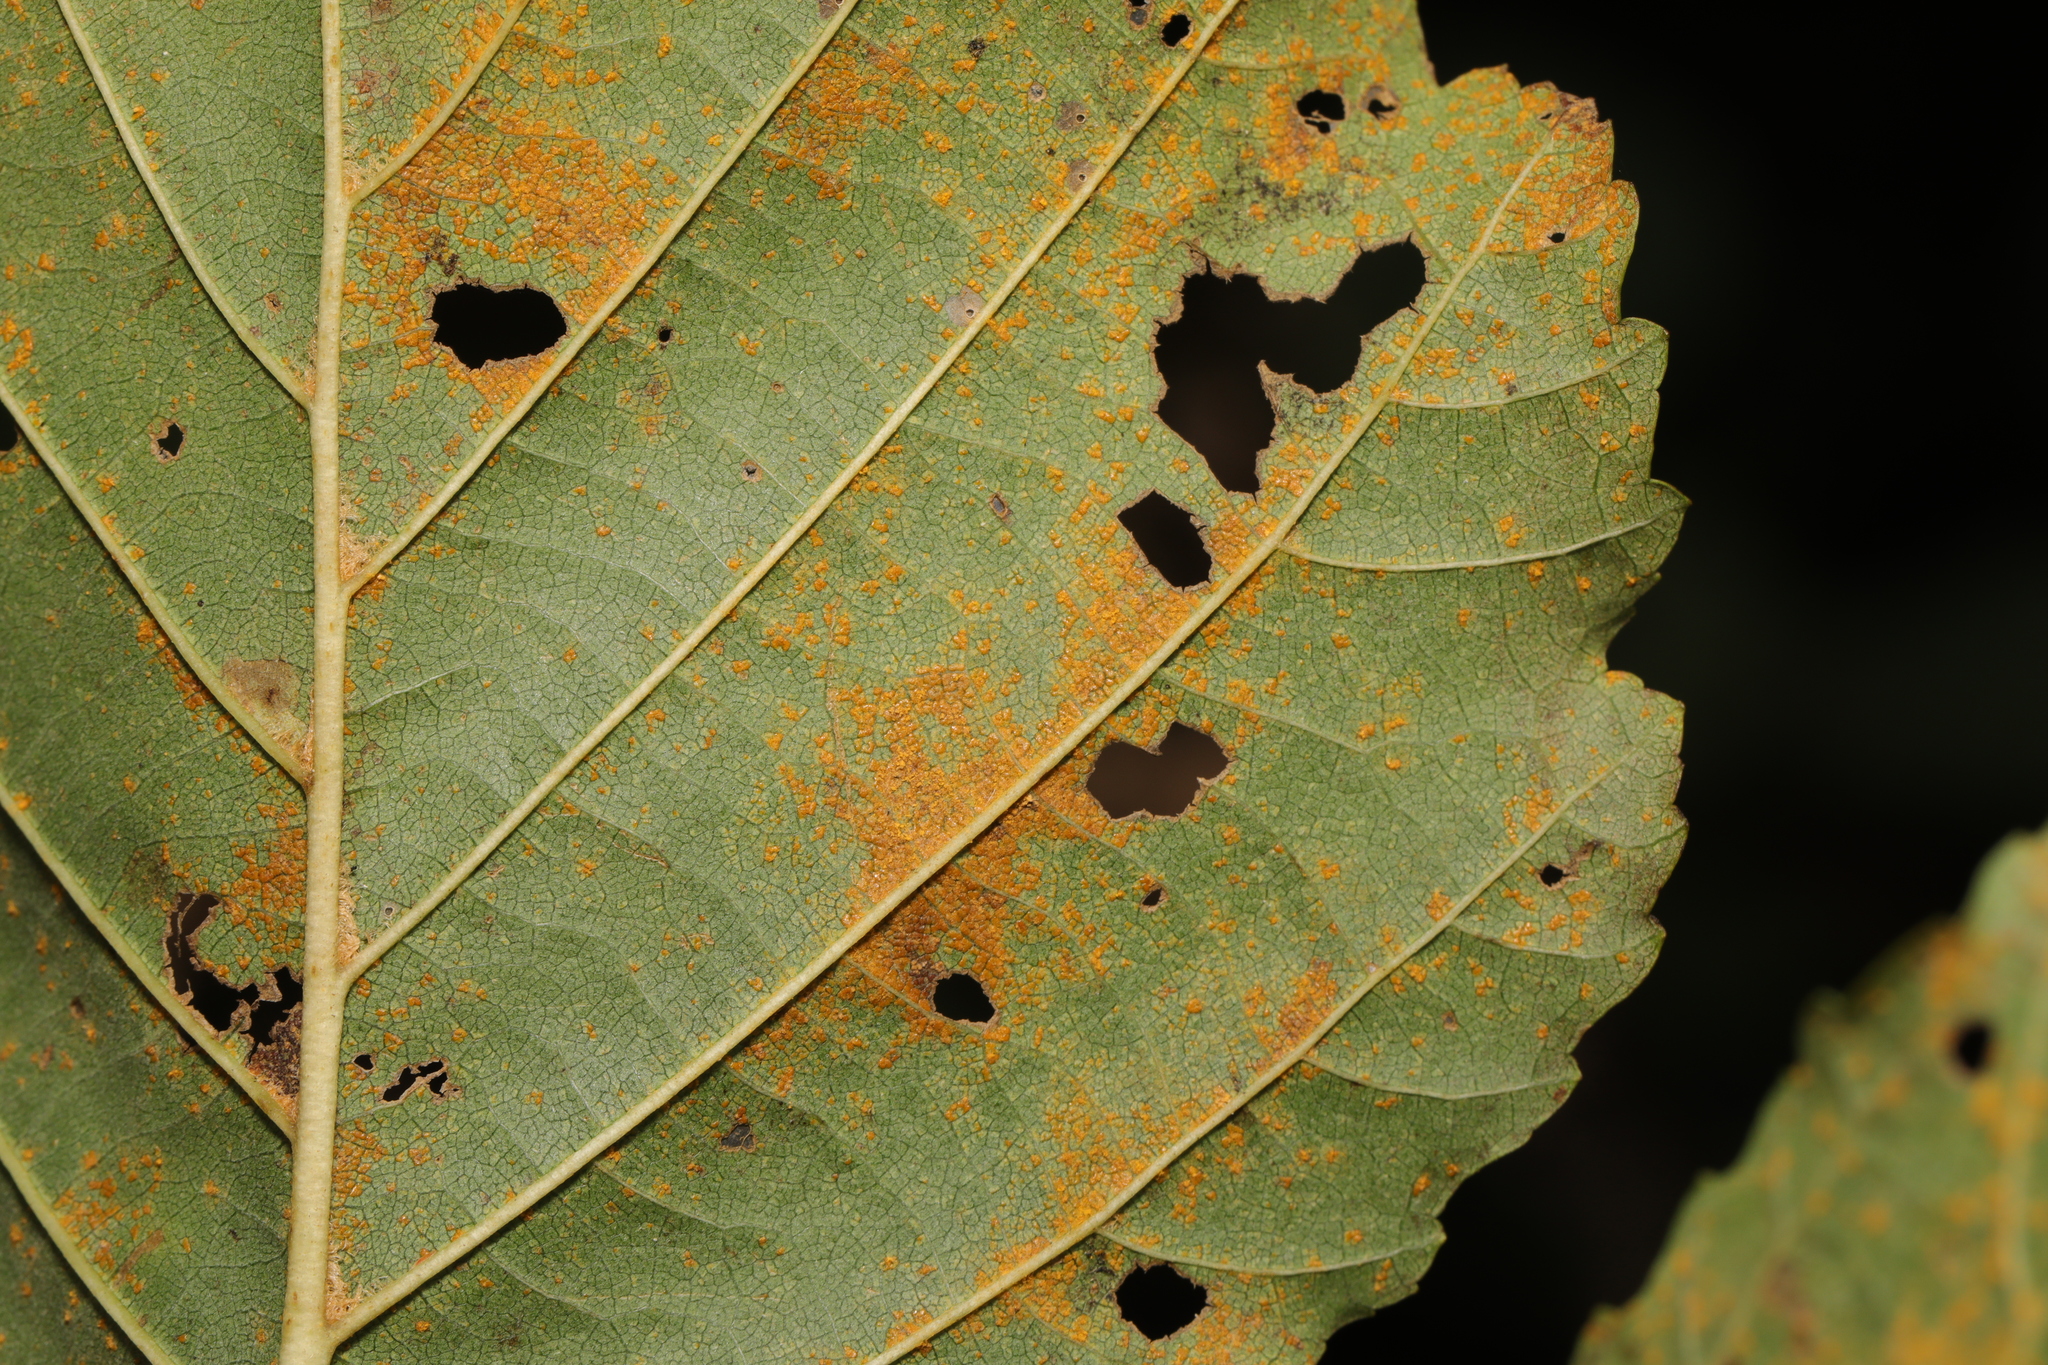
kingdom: Fungi
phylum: Basidiomycota
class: Pucciniomycetes
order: Pucciniales
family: Pucciniastraceae
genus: Melampsoridium
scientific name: Melampsoridium hiratsukanum
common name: Alder rust
